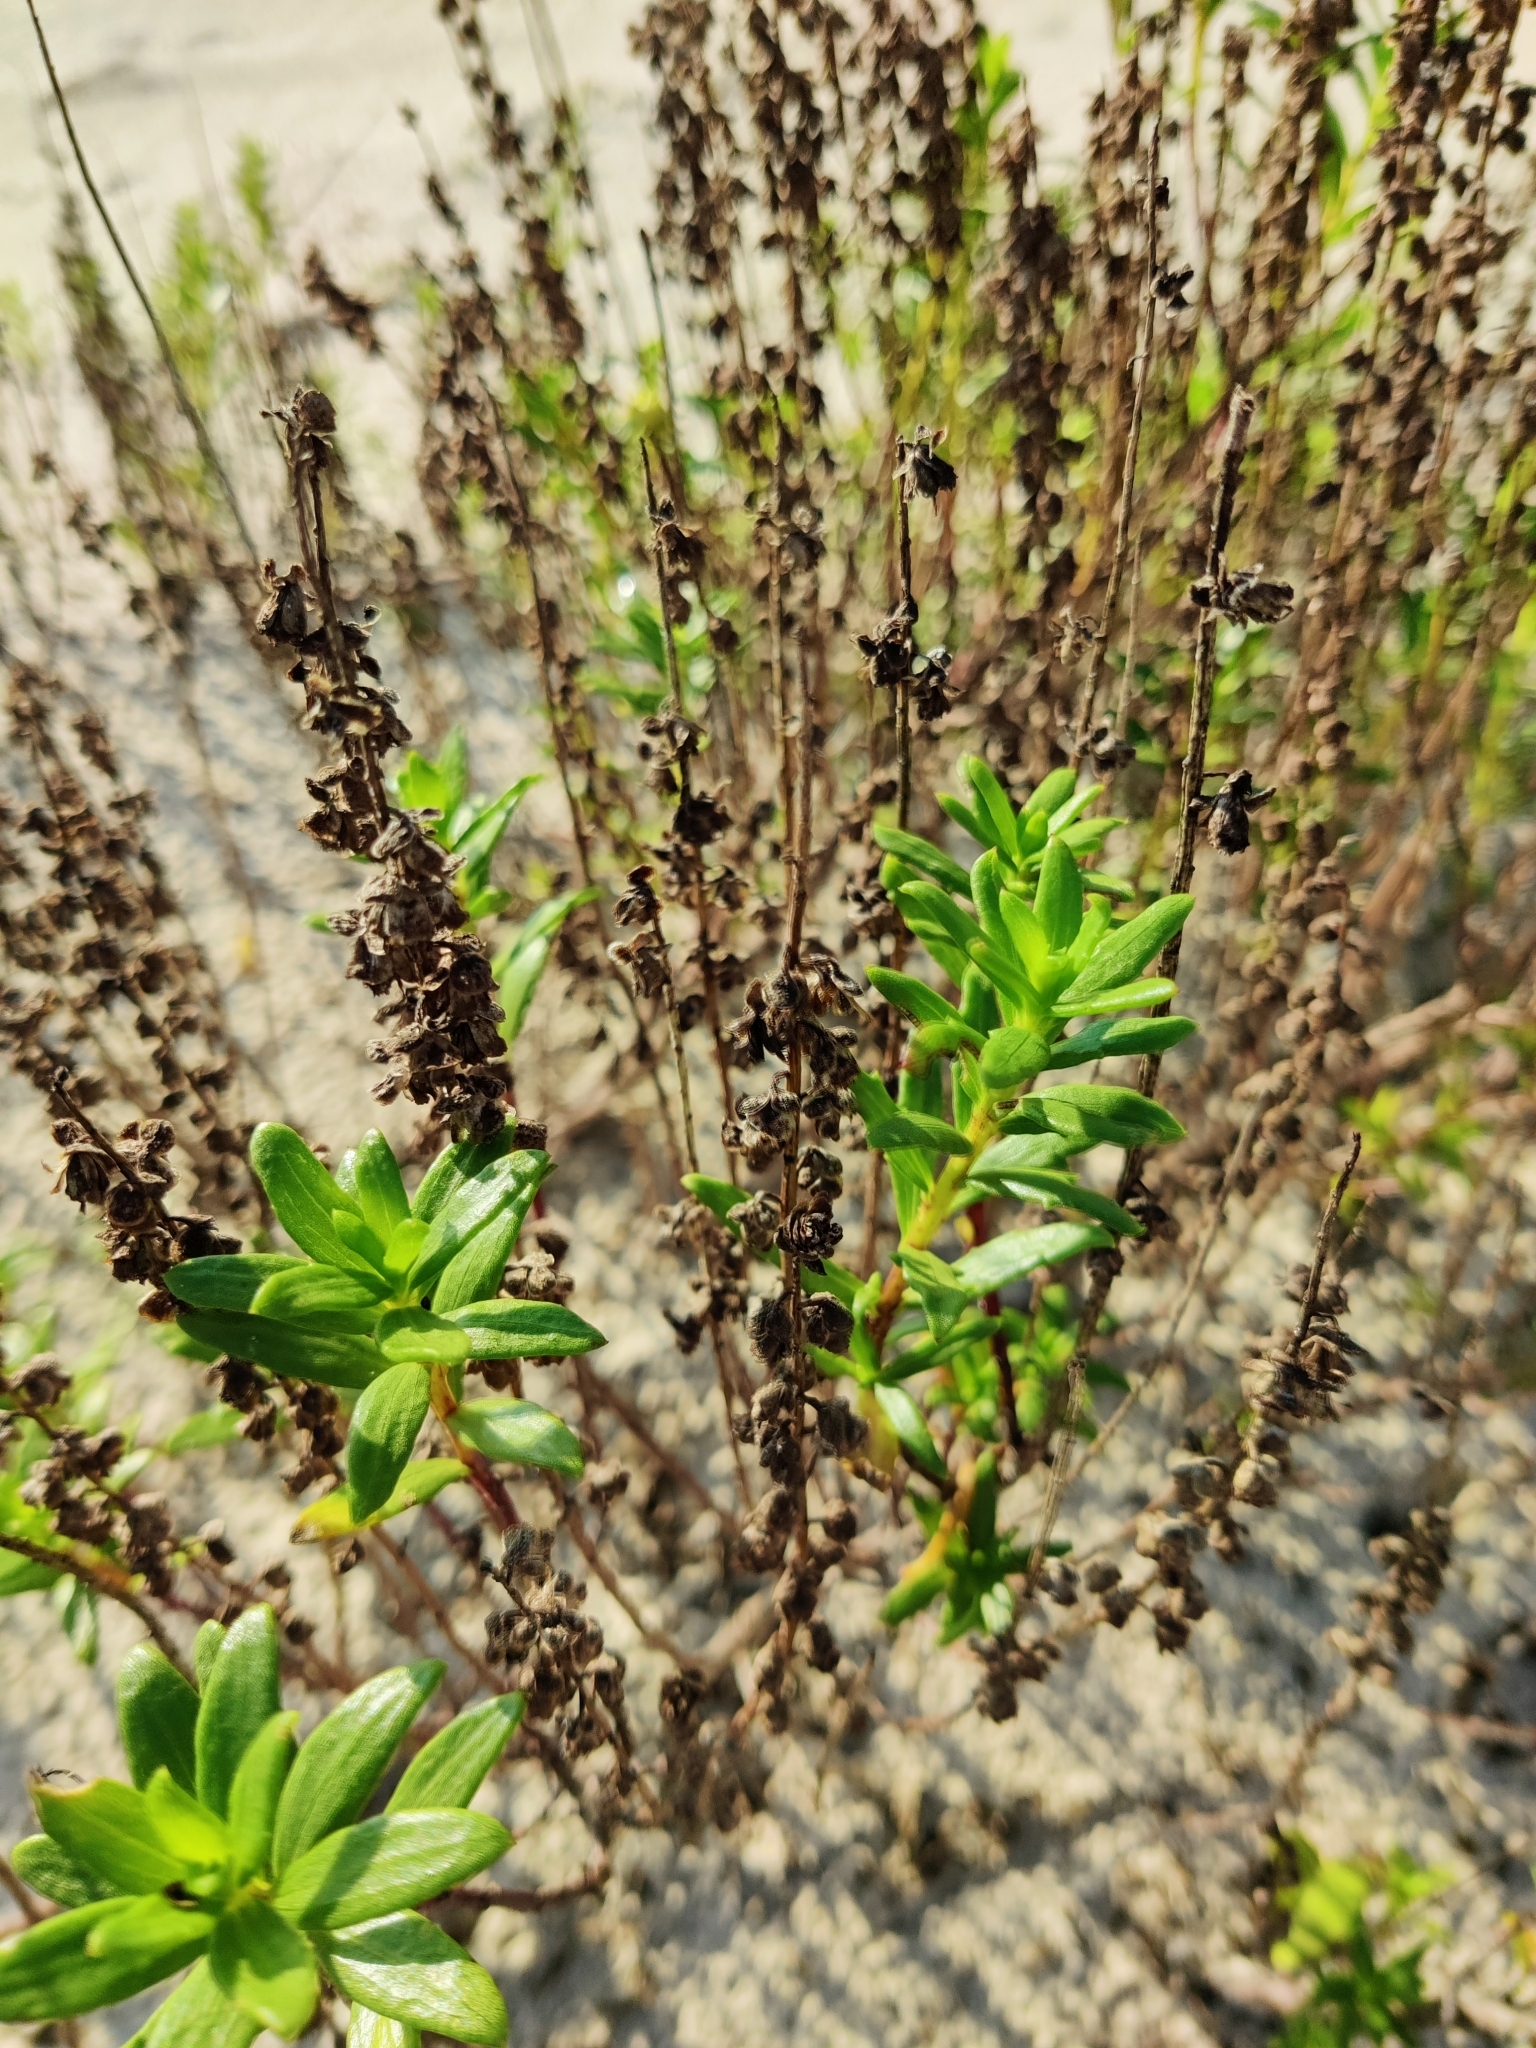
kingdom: Plantae
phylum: Tracheophyta
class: Magnoliopsida
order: Asterales
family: Asteraceae
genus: Iva
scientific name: Iva imbricata
